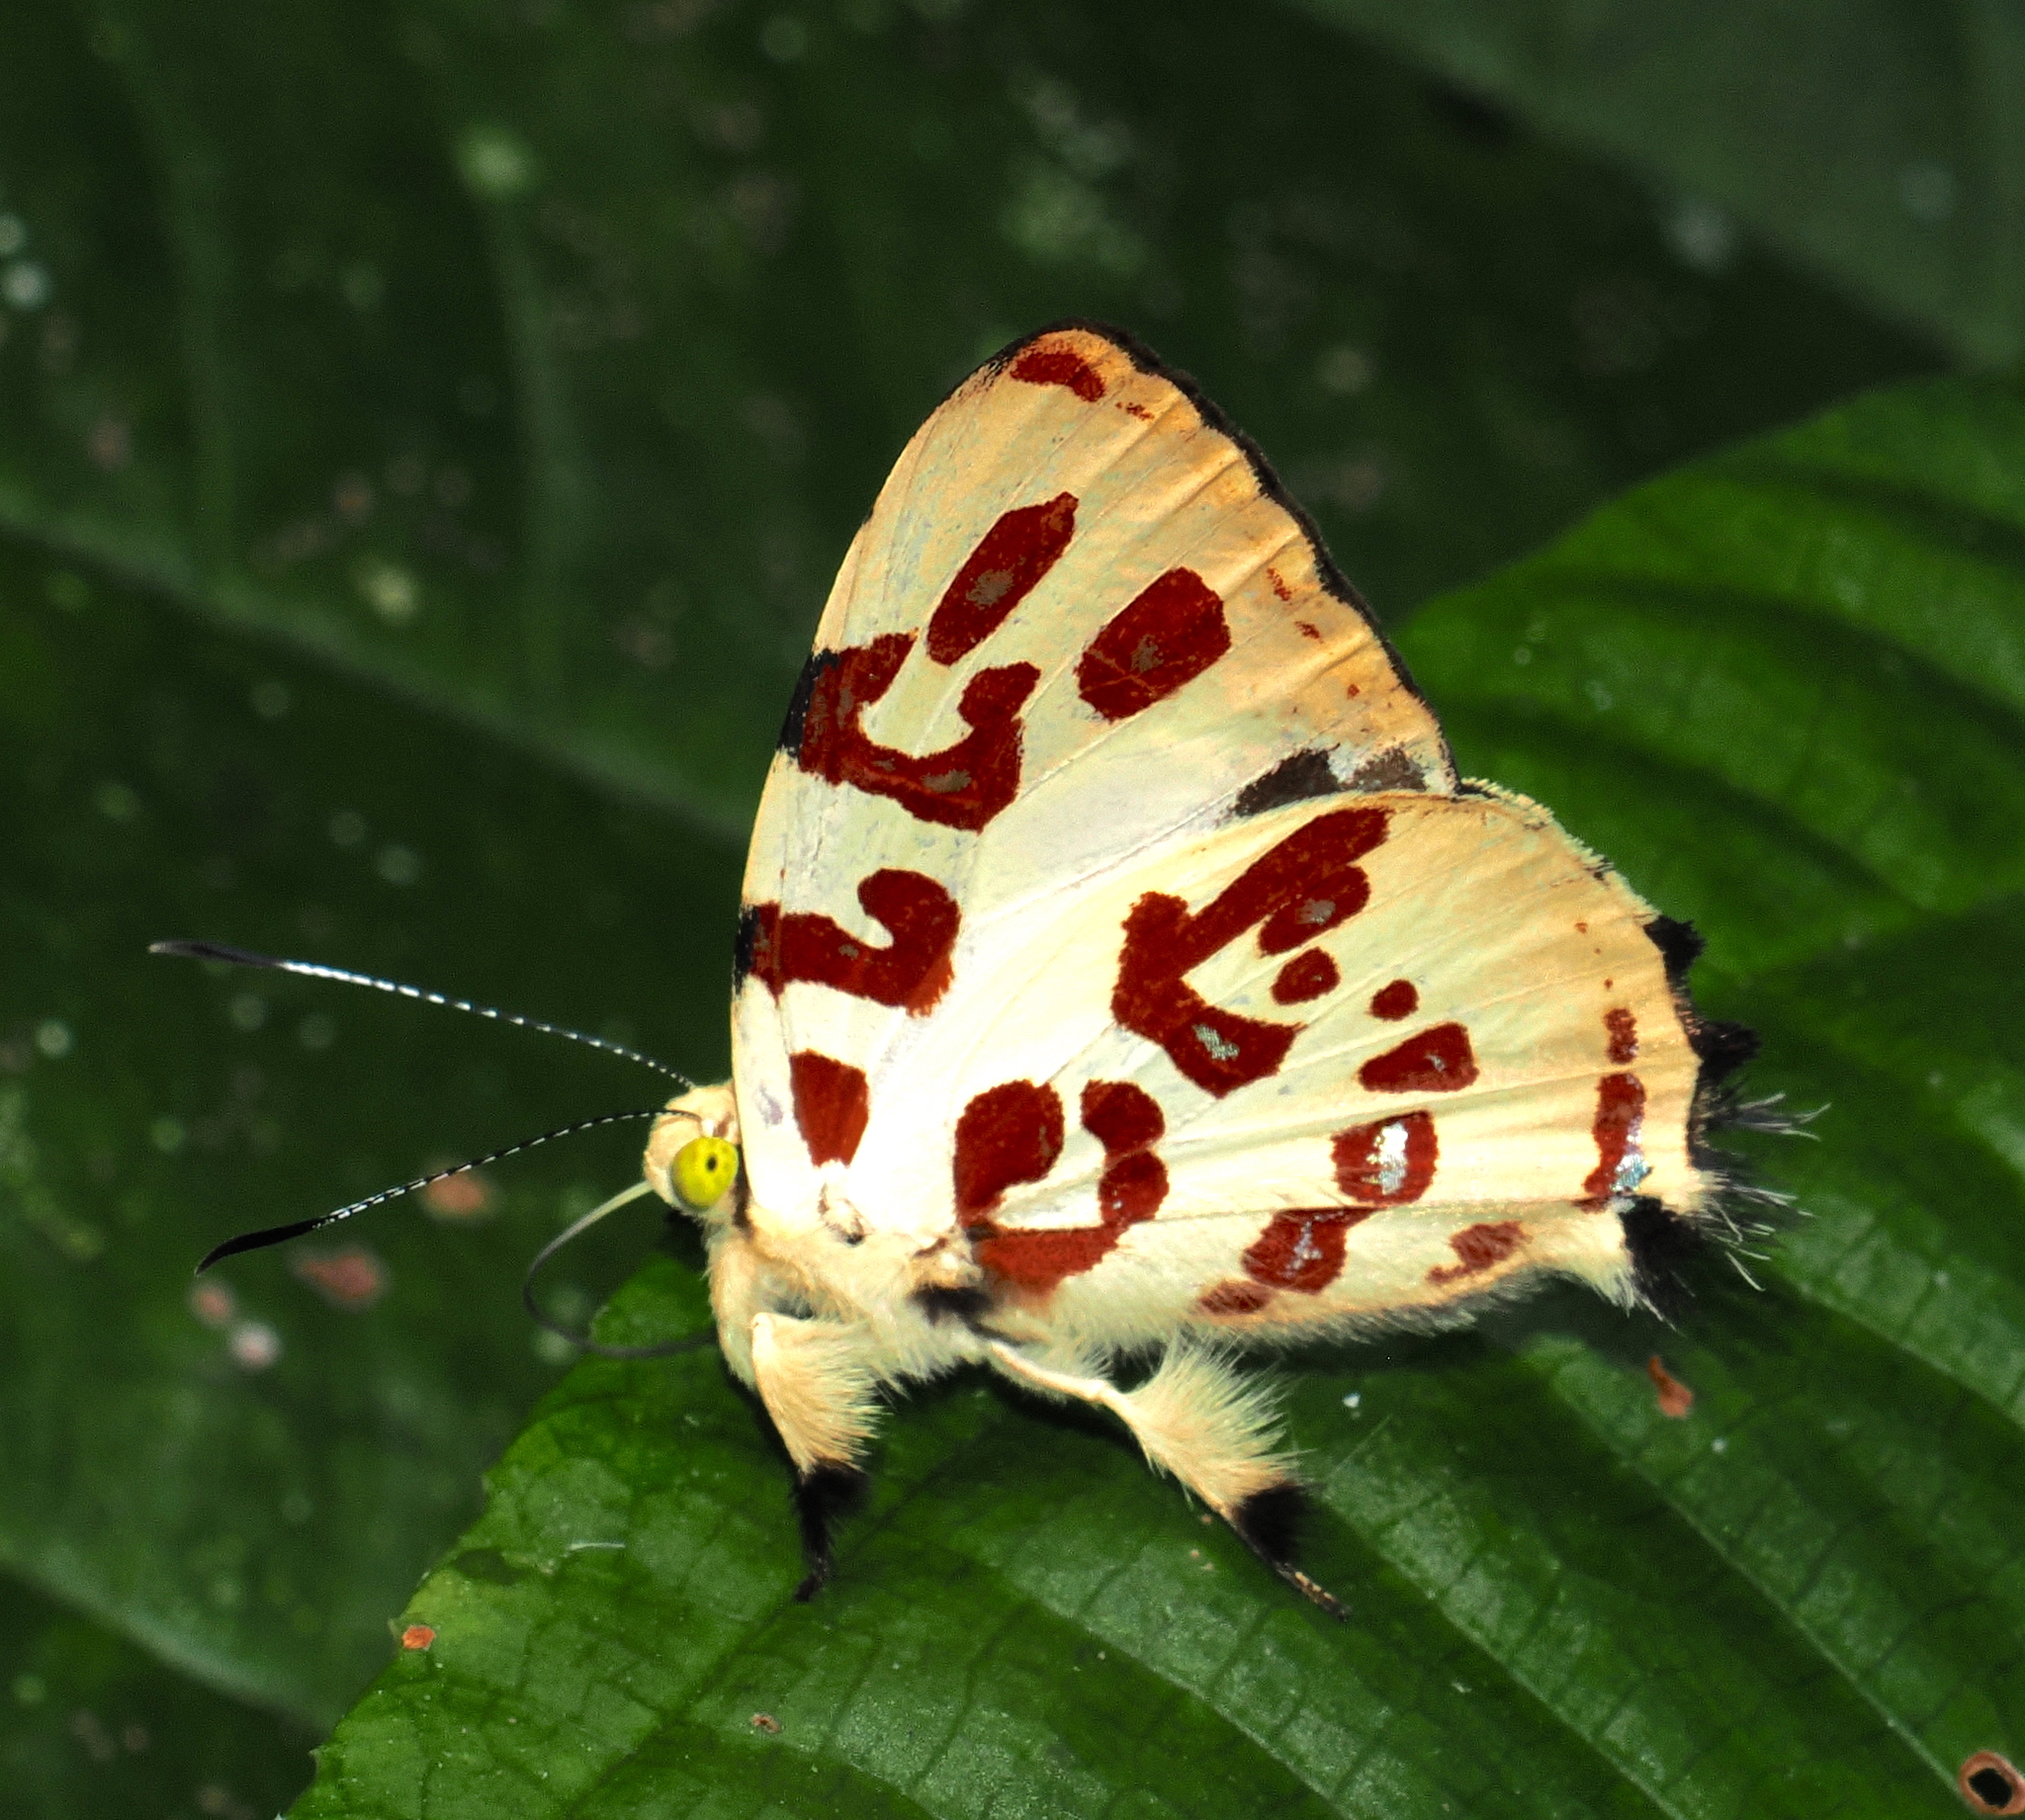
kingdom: Animalia
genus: Anteros
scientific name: Anteros kupris
